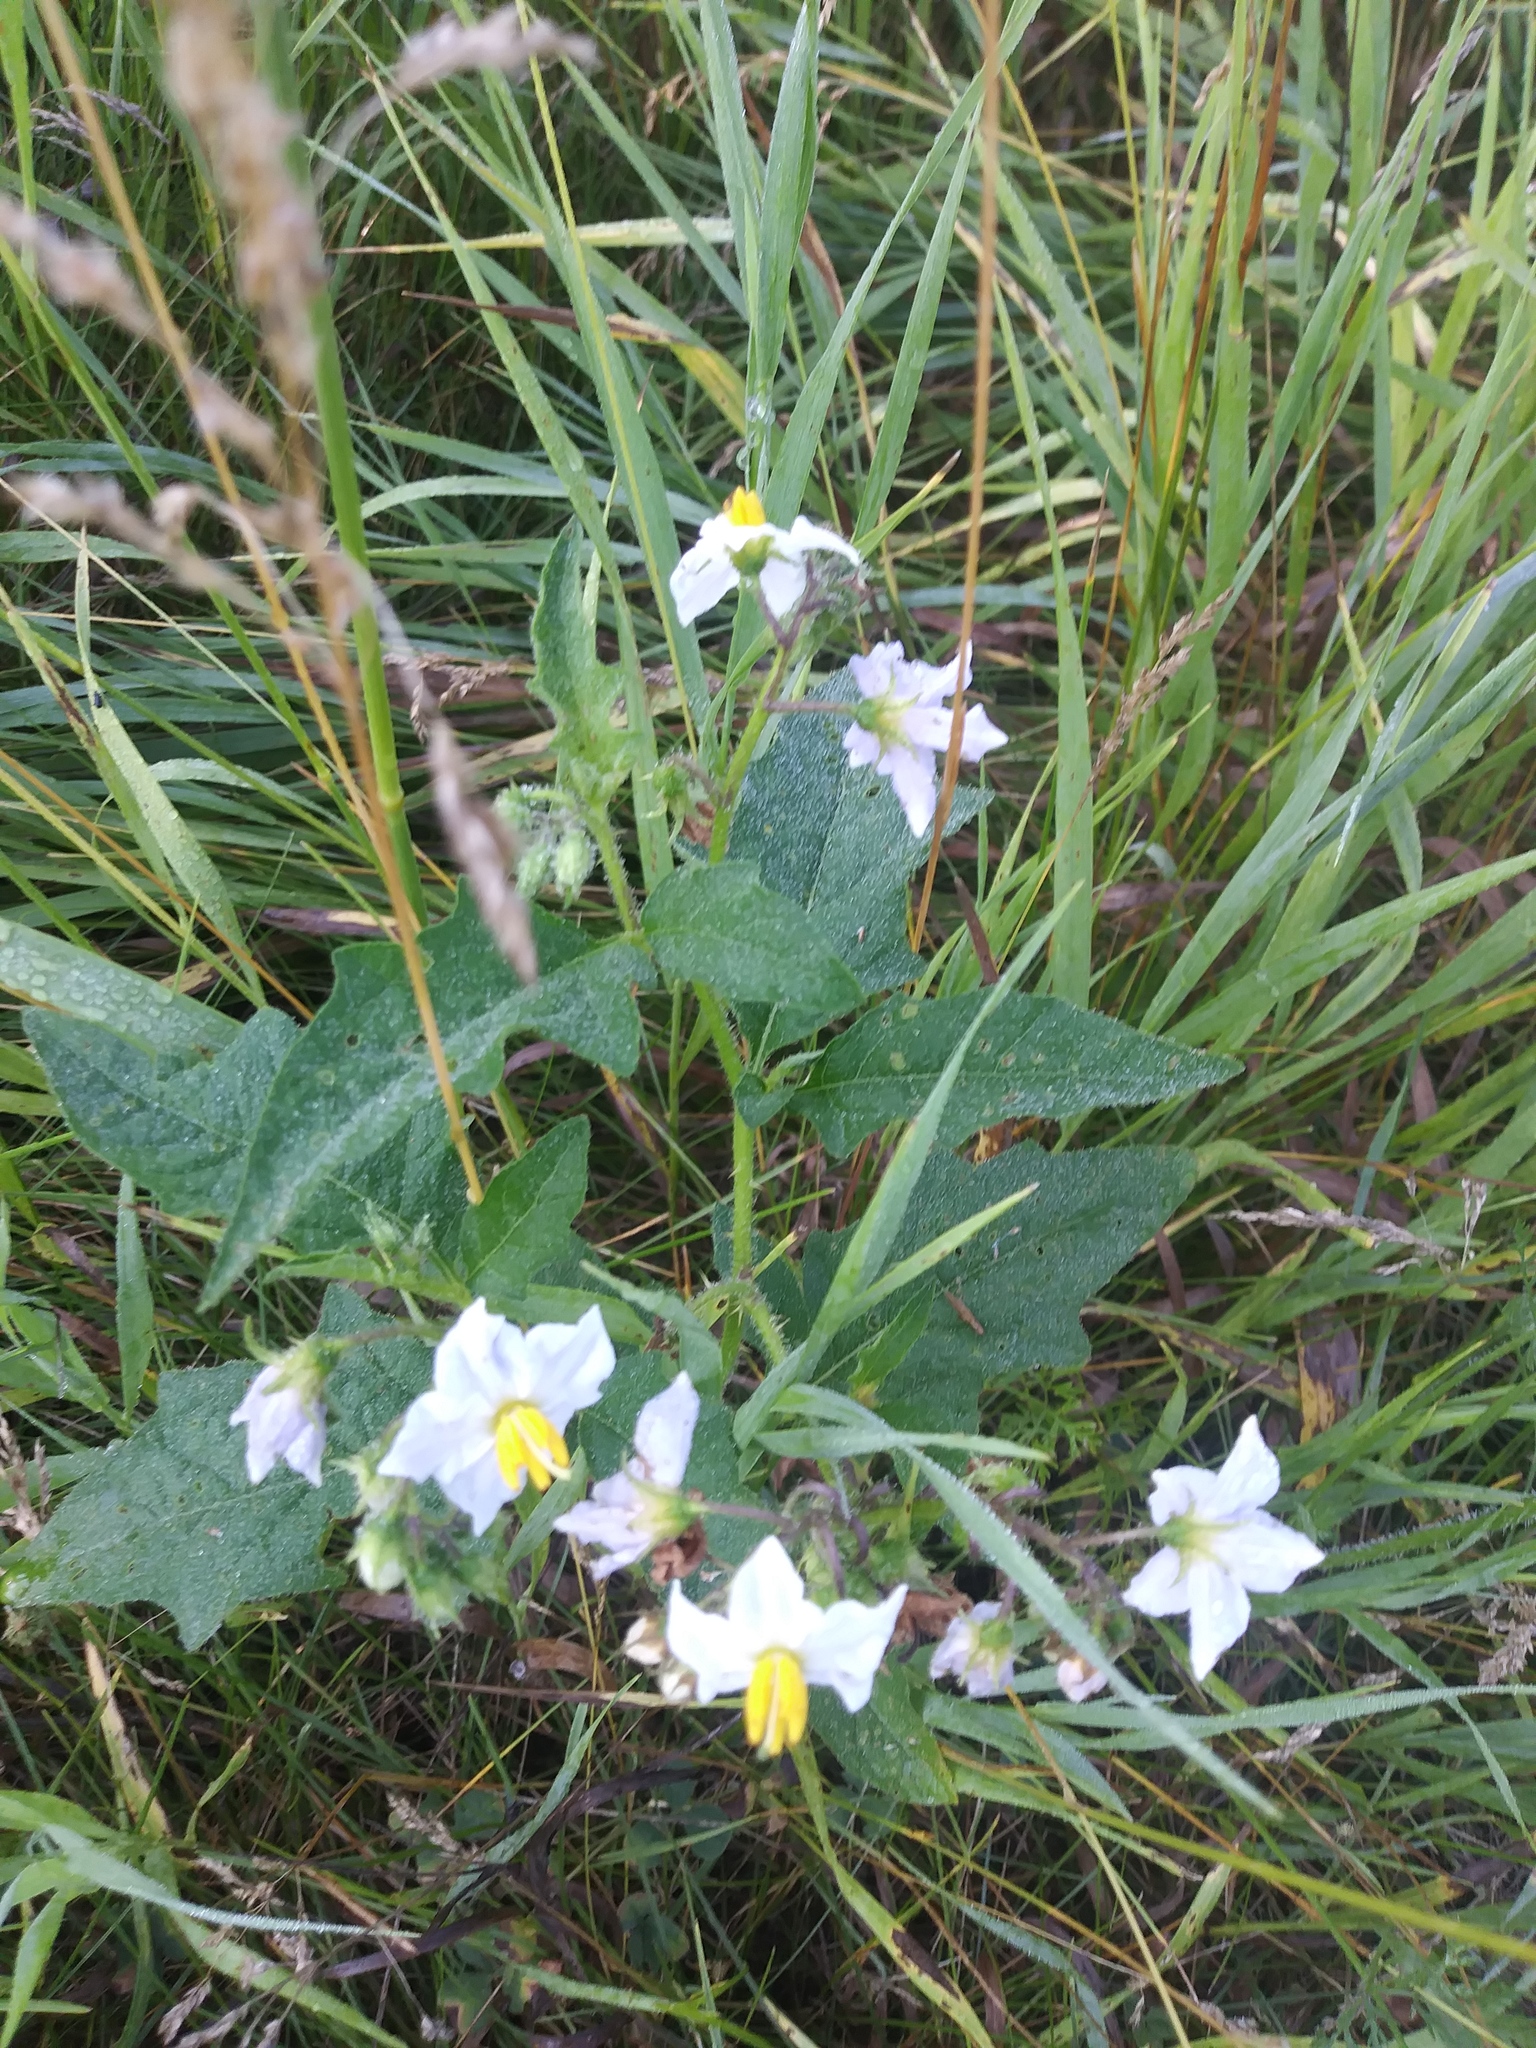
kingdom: Plantae
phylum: Tracheophyta
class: Magnoliopsida
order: Solanales
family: Solanaceae
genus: Solanum
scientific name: Solanum carolinense
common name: Horse-nettle
